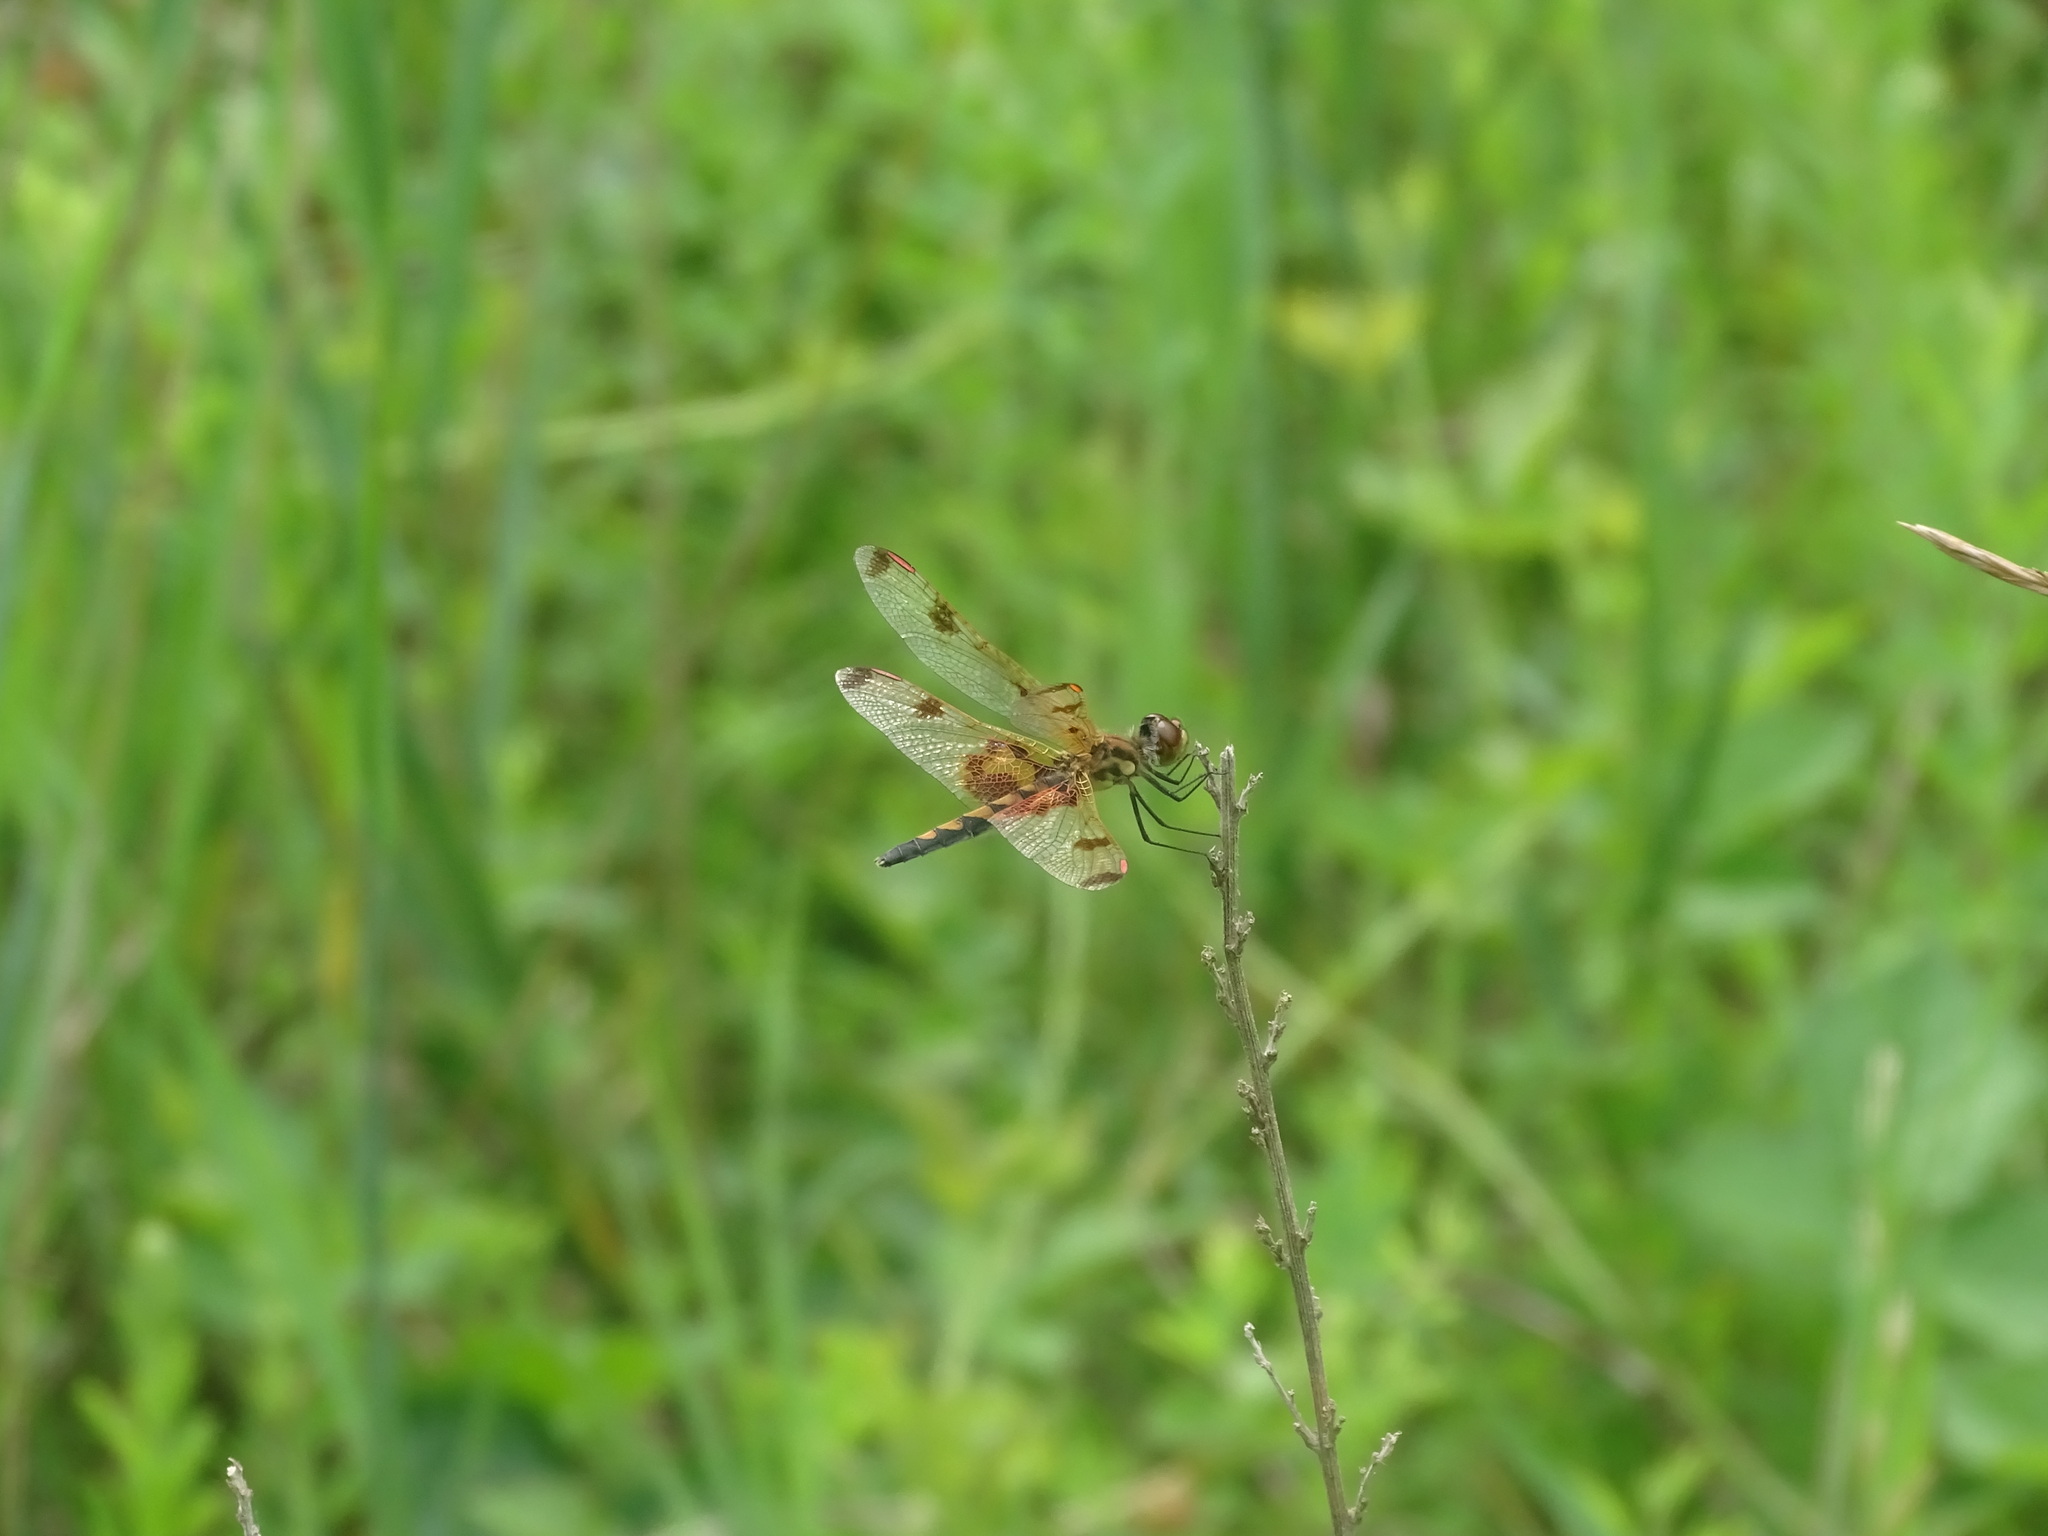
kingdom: Animalia
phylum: Arthropoda
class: Insecta
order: Odonata
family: Libellulidae
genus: Celithemis
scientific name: Celithemis elisa
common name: Calico pennant
